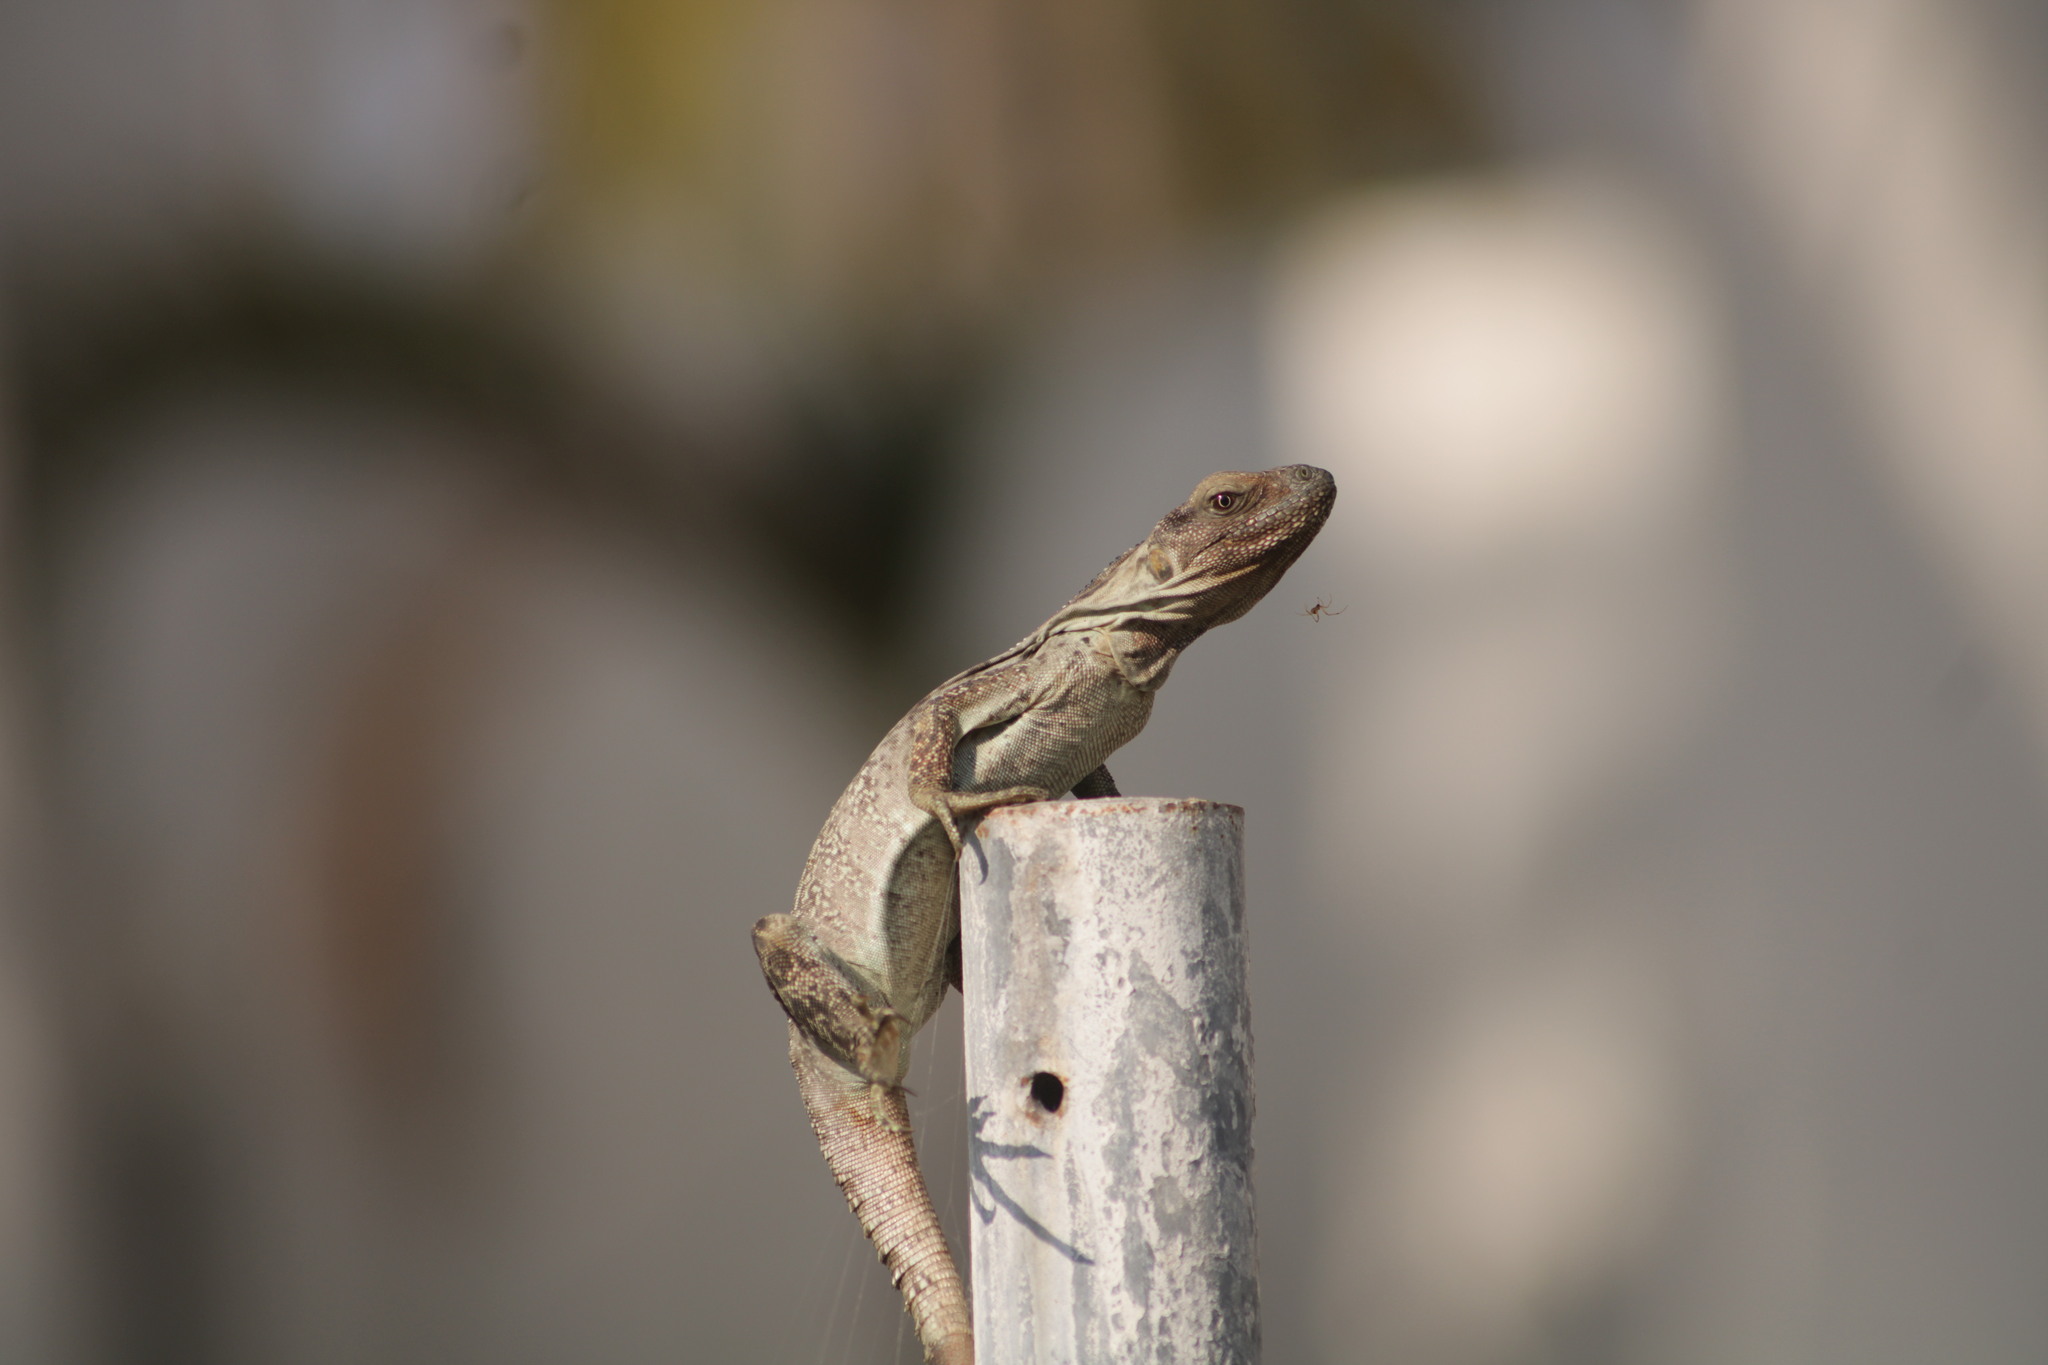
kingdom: Animalia
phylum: Chordata
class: Squamata
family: Iguanidae
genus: Ctenosaura
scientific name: Ctenosaura pectinata
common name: Guerreran spiny-tailed iguana
